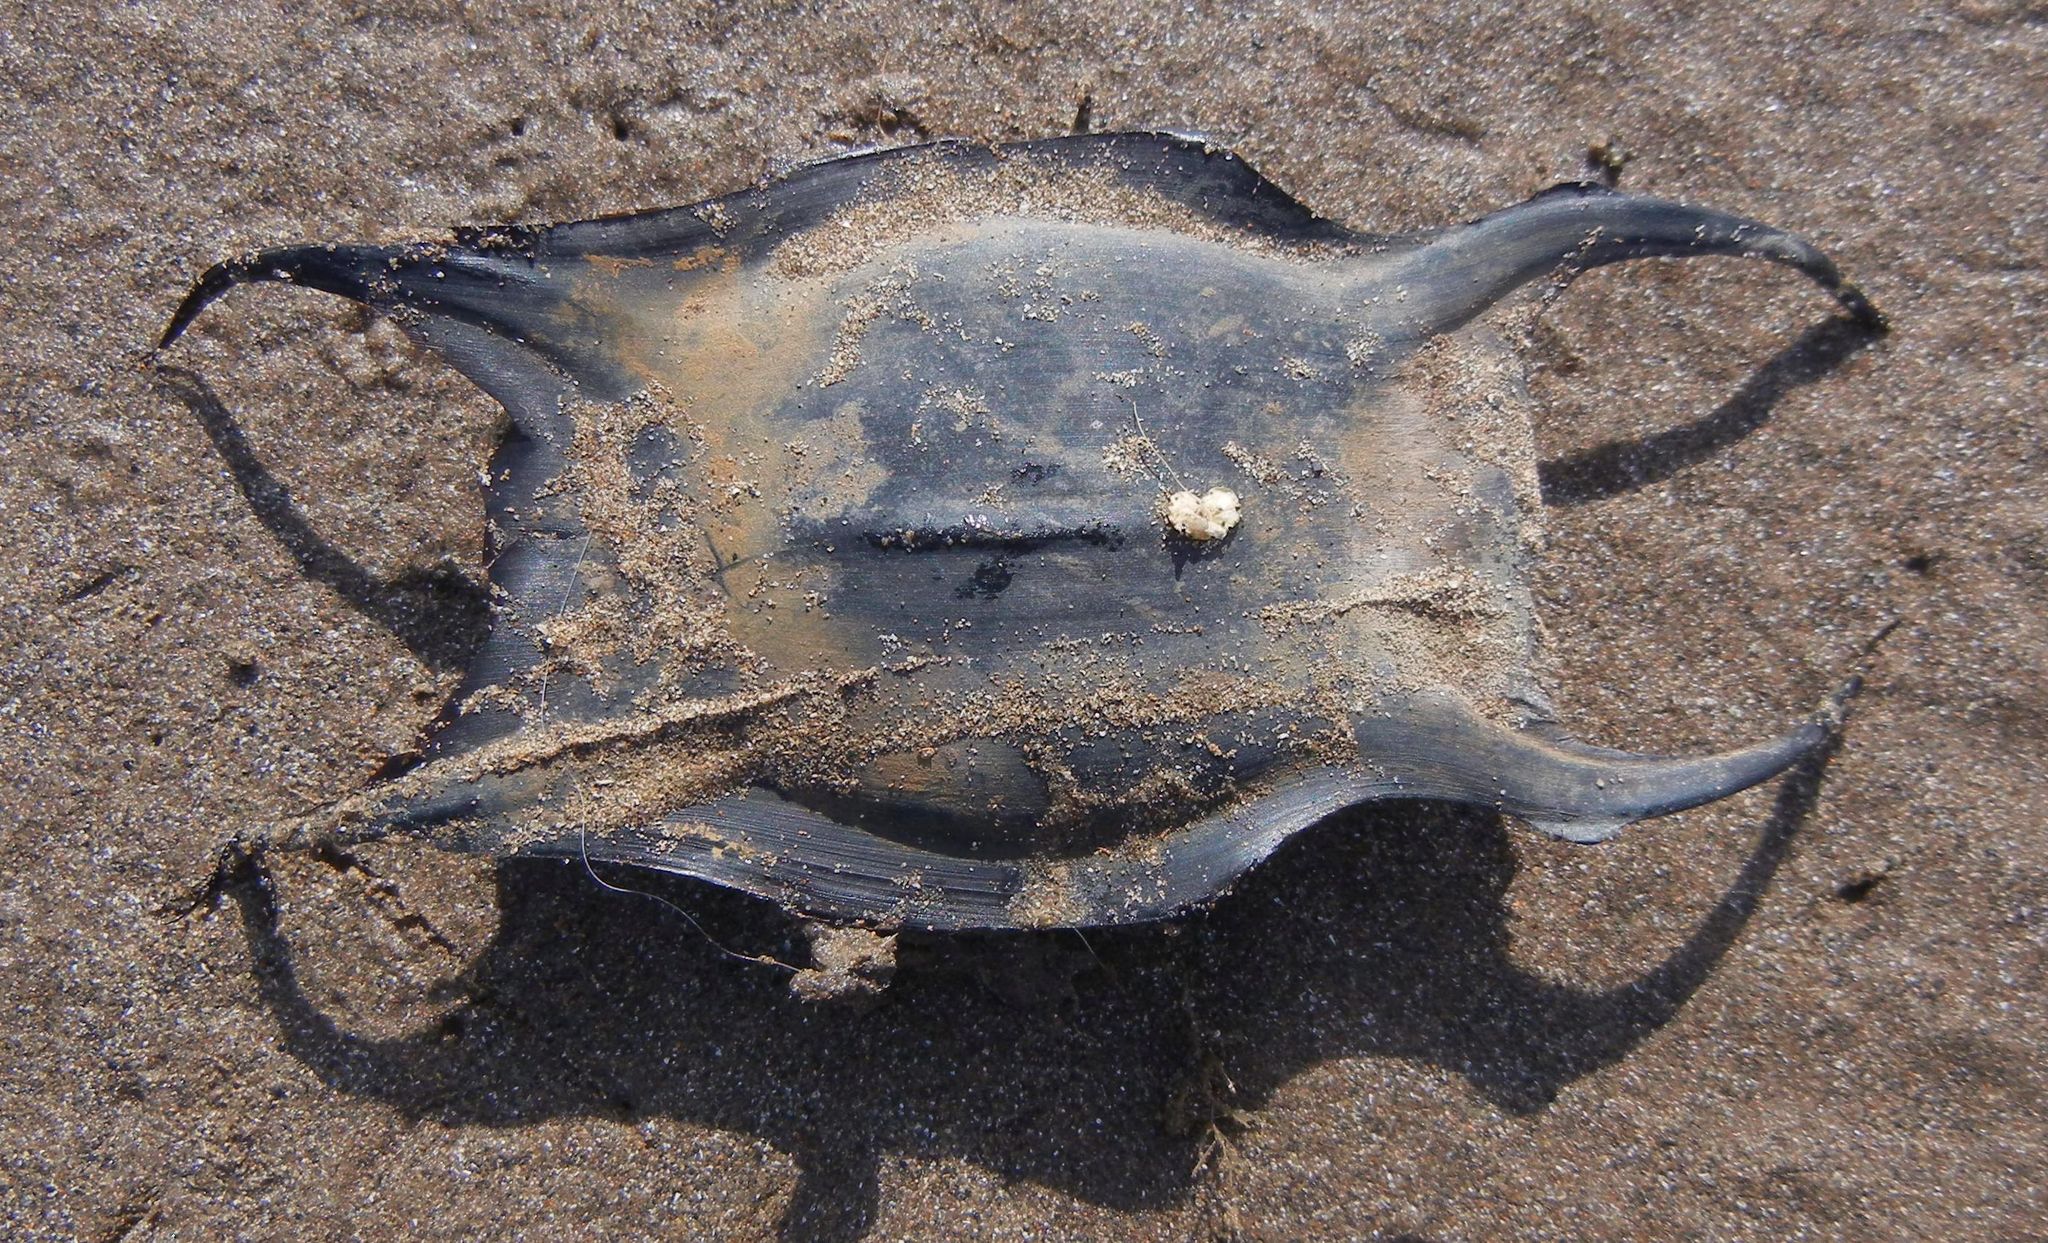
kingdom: Animalia
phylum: Chordata
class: Elasmobranchii
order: Rajiformes
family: Rajidae
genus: Raja
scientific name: Raja clavata
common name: Thornback ray
